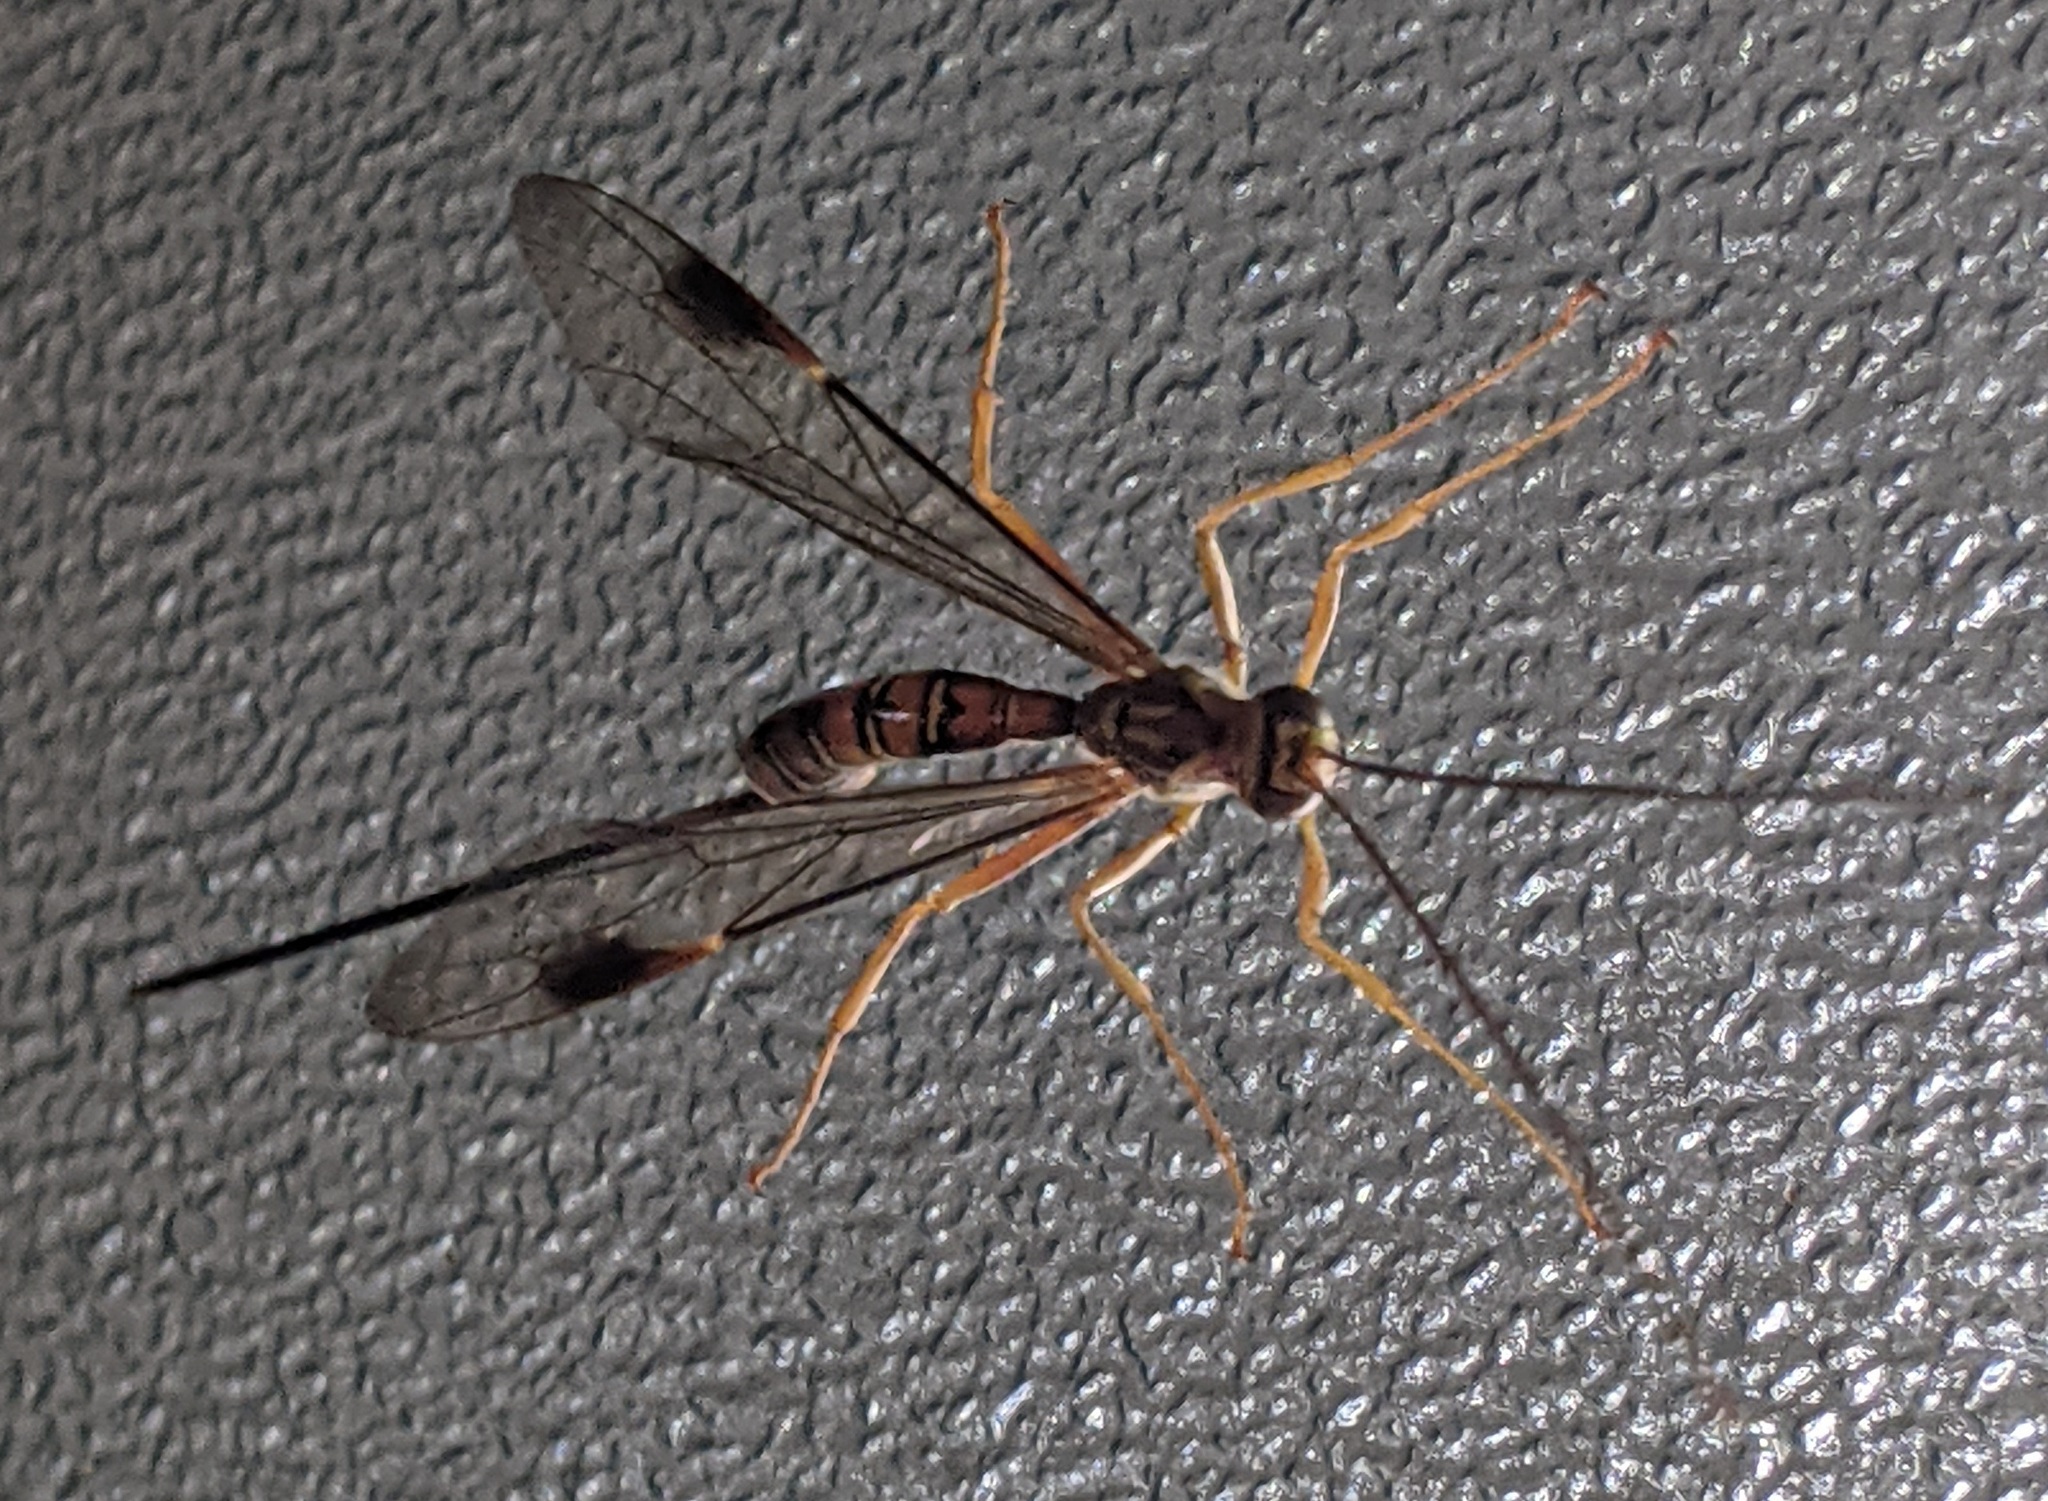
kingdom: Animalia
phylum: Arthropoda
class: Insecta
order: Hymenoptera
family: Ichneumonidae
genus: Megarhyssa
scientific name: Megarhyssa greenei
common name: Greene's giant ichneumonid wasp
